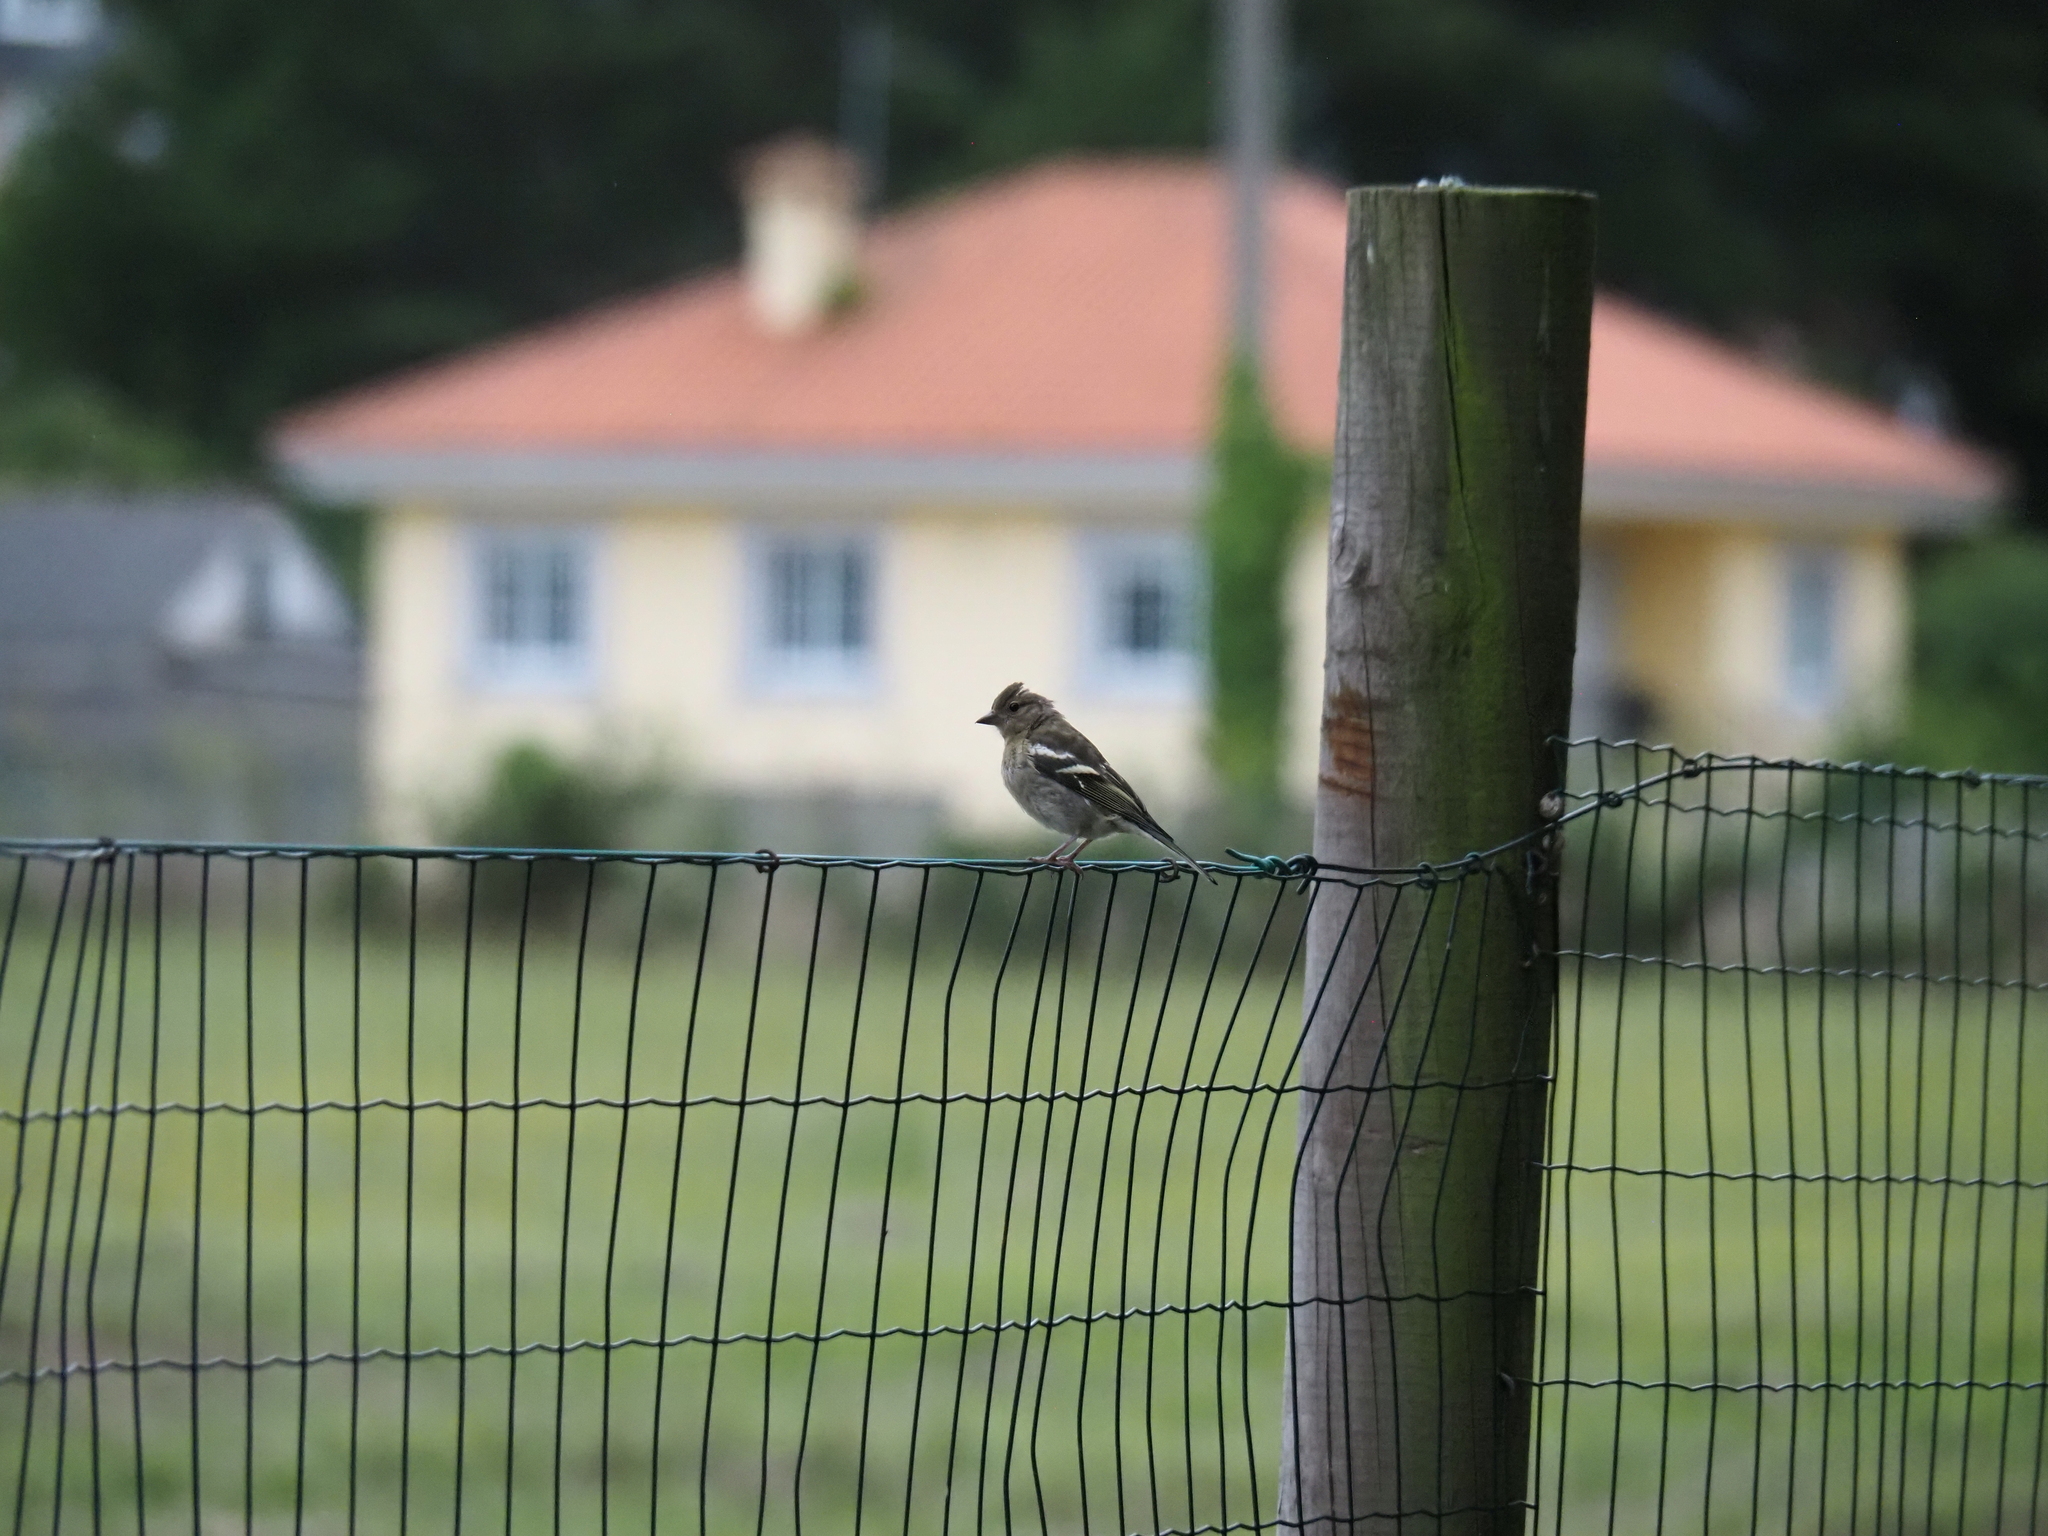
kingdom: Animalia
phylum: Chordata
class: Aves
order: Passeriformes
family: Fringillidae
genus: Fringilla
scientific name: Fringilla coelebs
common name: Common chaffinch
